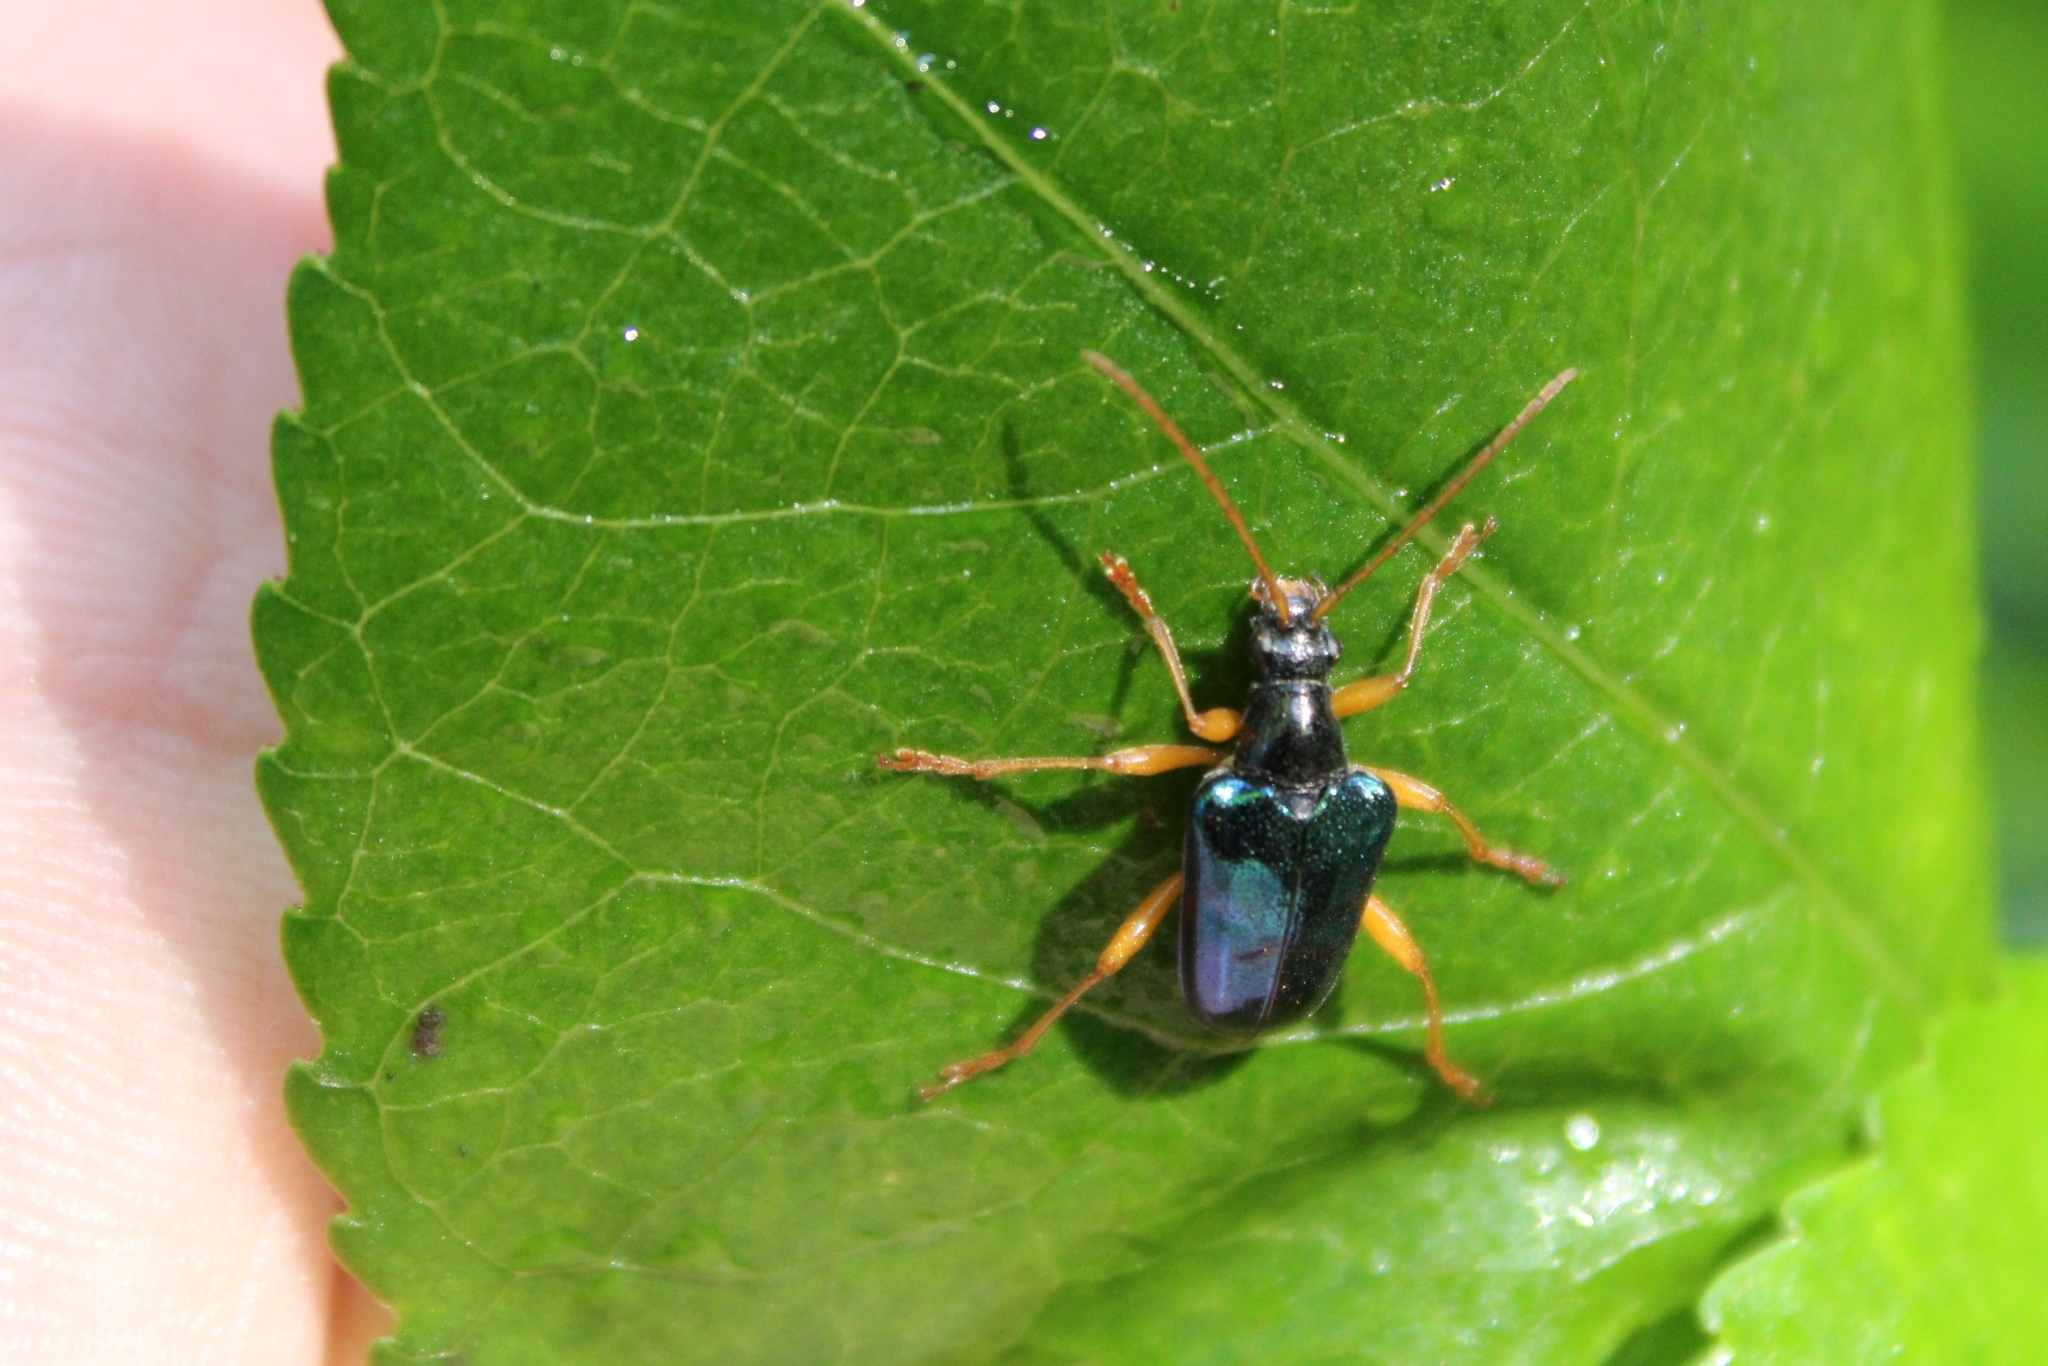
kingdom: Animalia
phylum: Arthropoda
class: Insecta
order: Coleoptera
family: Cerambycidae
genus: Gaurotes
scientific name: Gaurotes cyanipennis
